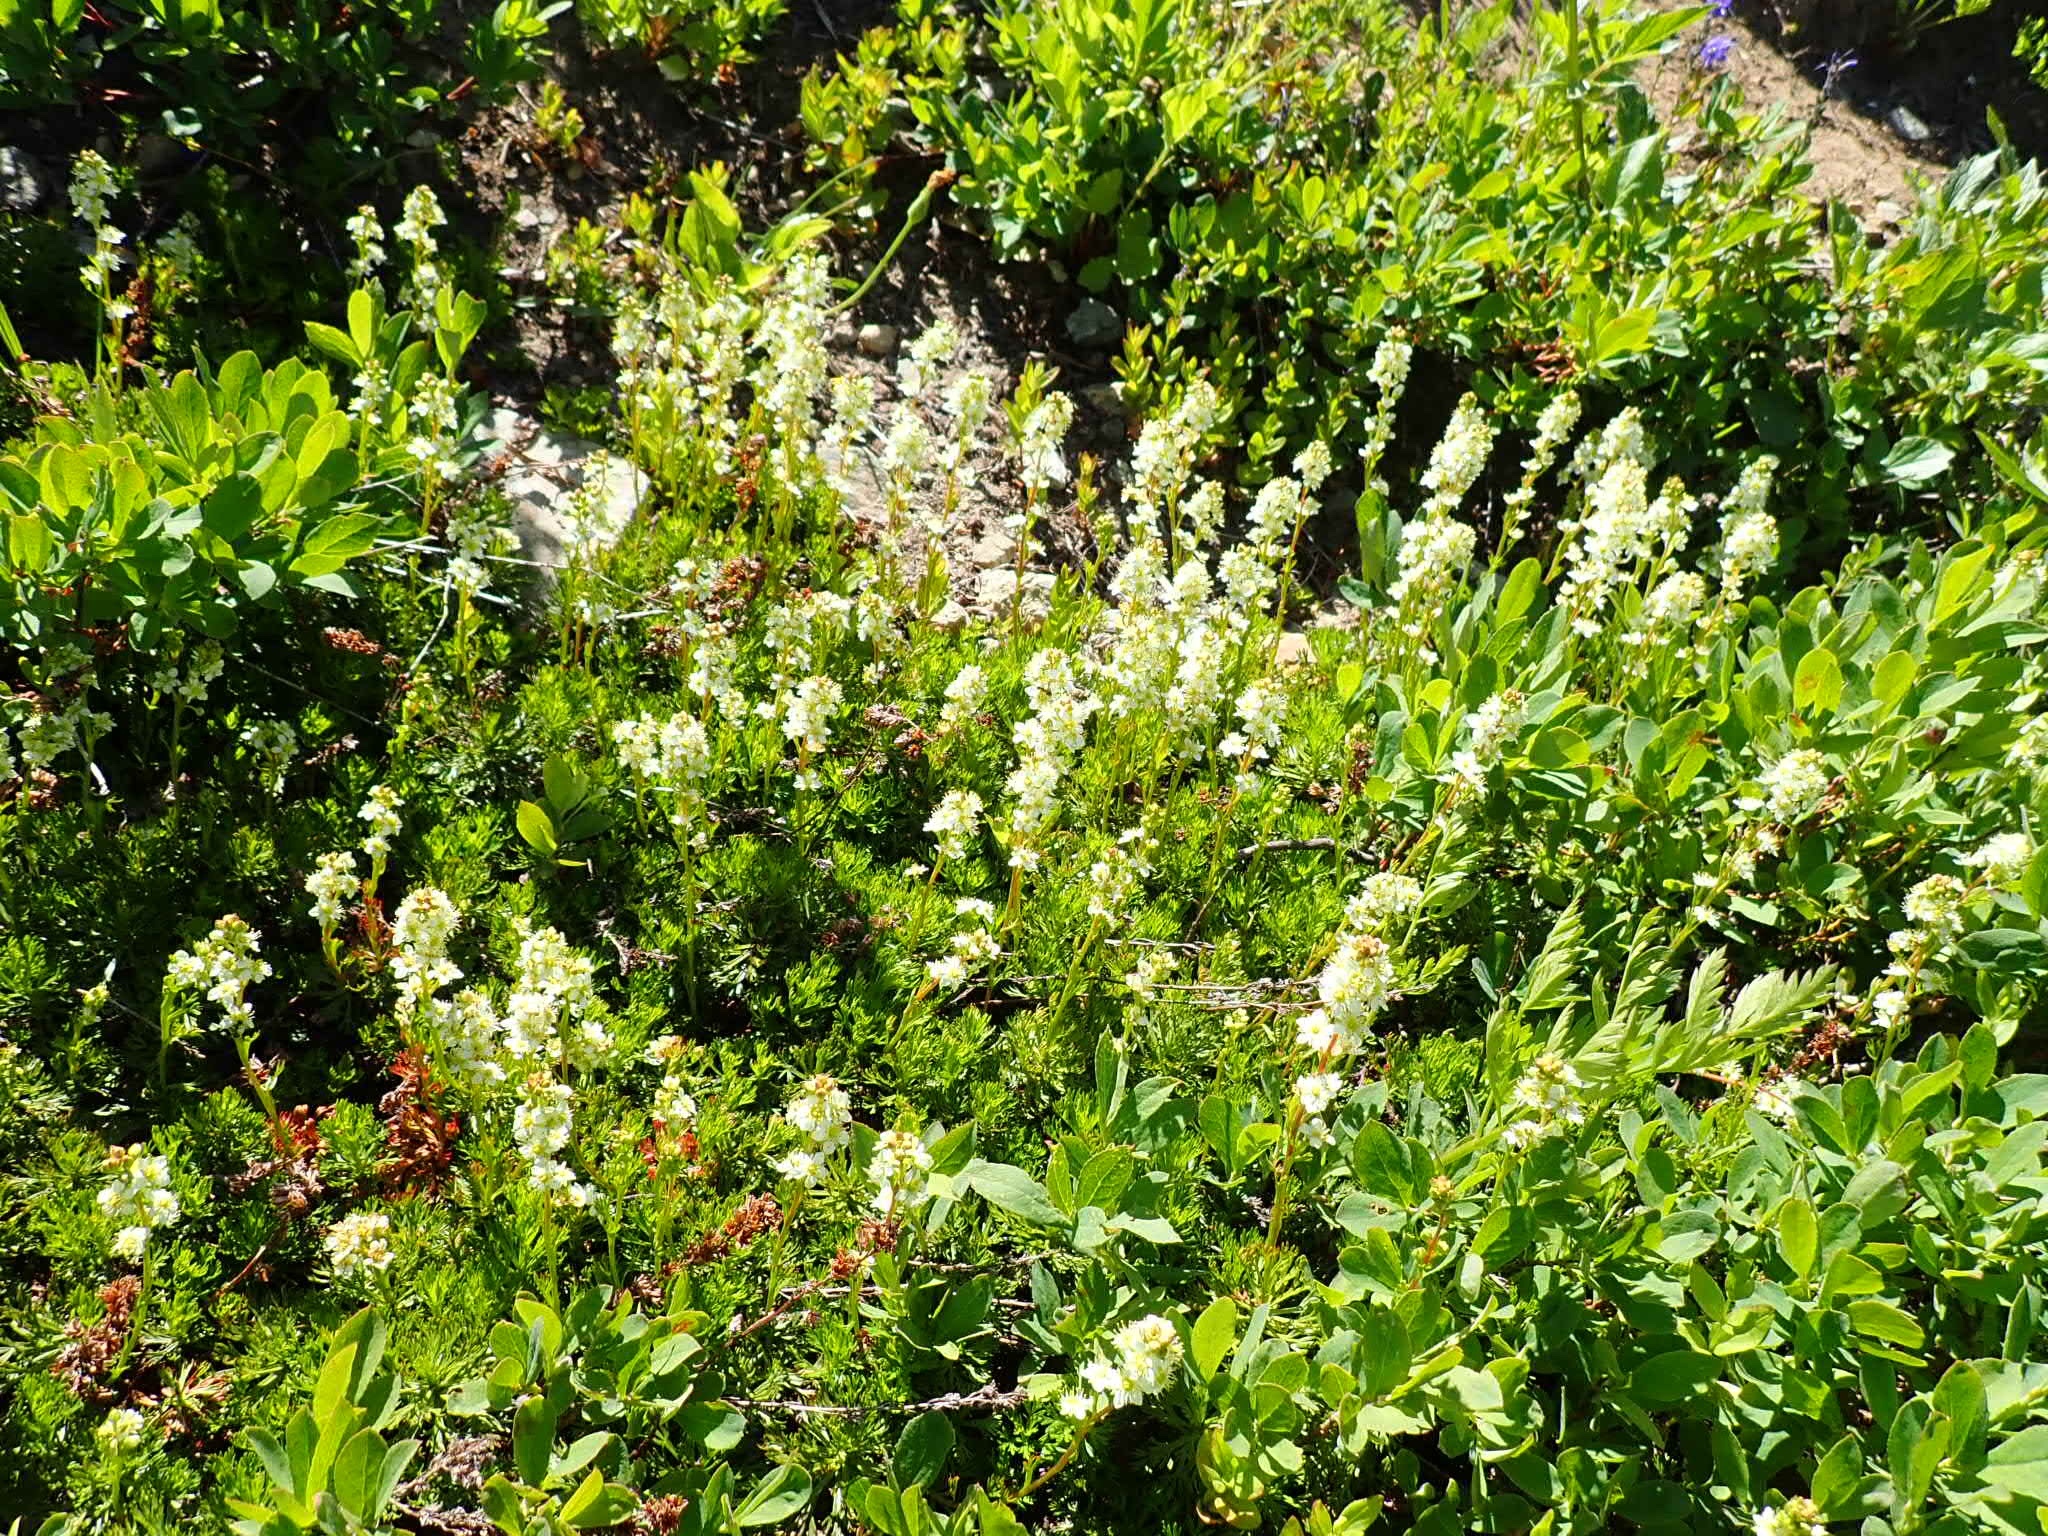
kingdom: Plantae
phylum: Tracheophyta
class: Magnoliopsida
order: Rosales
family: Rosaceae
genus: Luetkea
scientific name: Luetkea pectinata
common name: Partridgefoot
